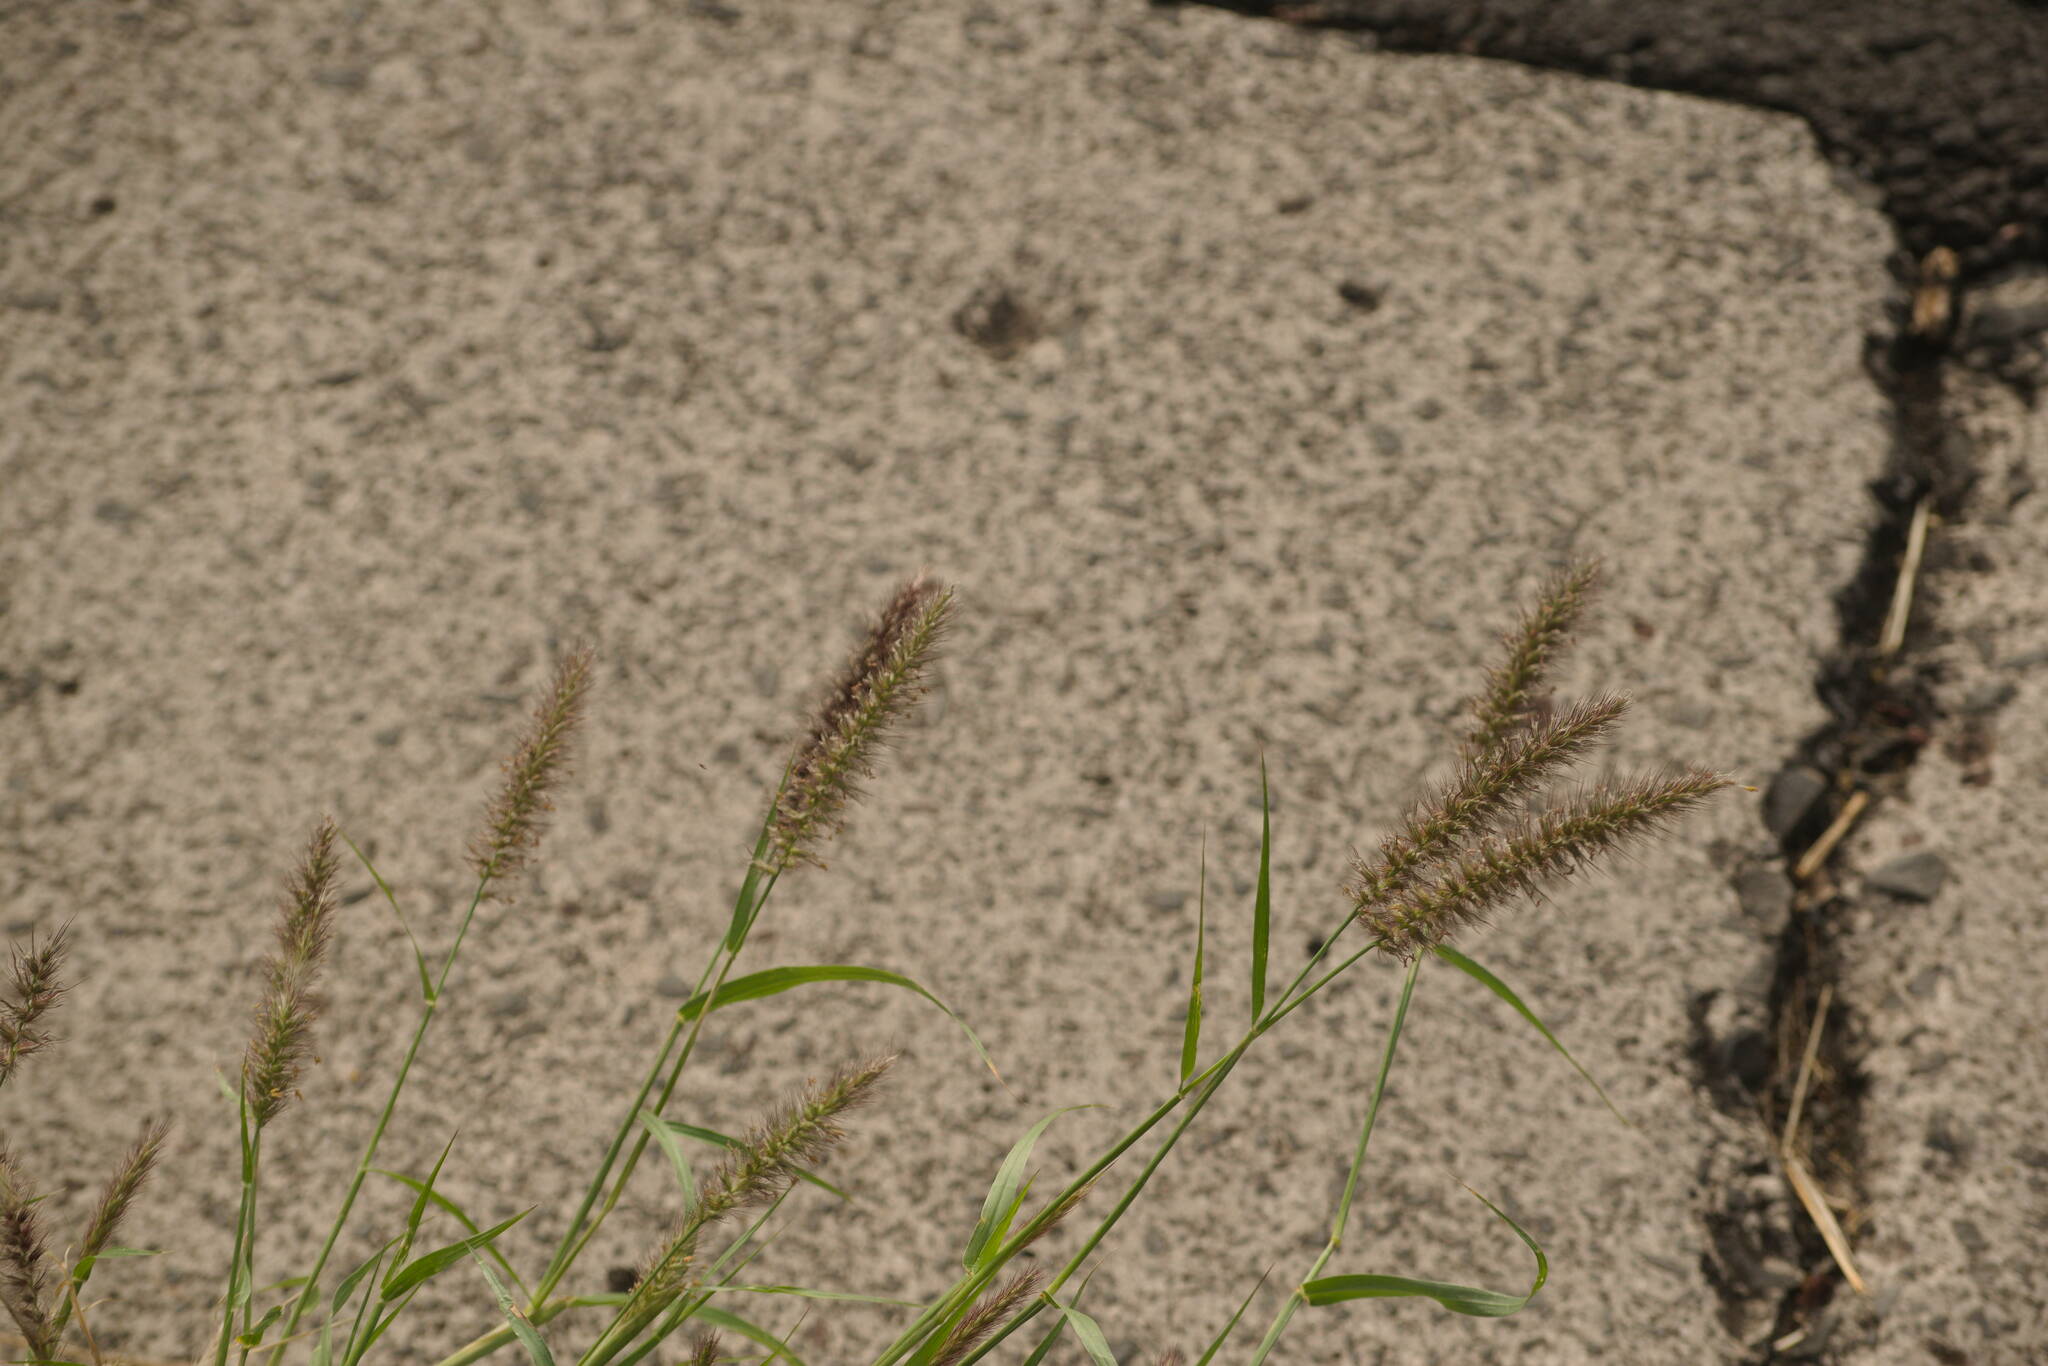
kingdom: Plantae
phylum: Tracheophyta
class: Liliopsida
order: Poales
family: Poaceae
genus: Cenchrus
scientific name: Cenchrus ciliaris
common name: Buffelgrass
